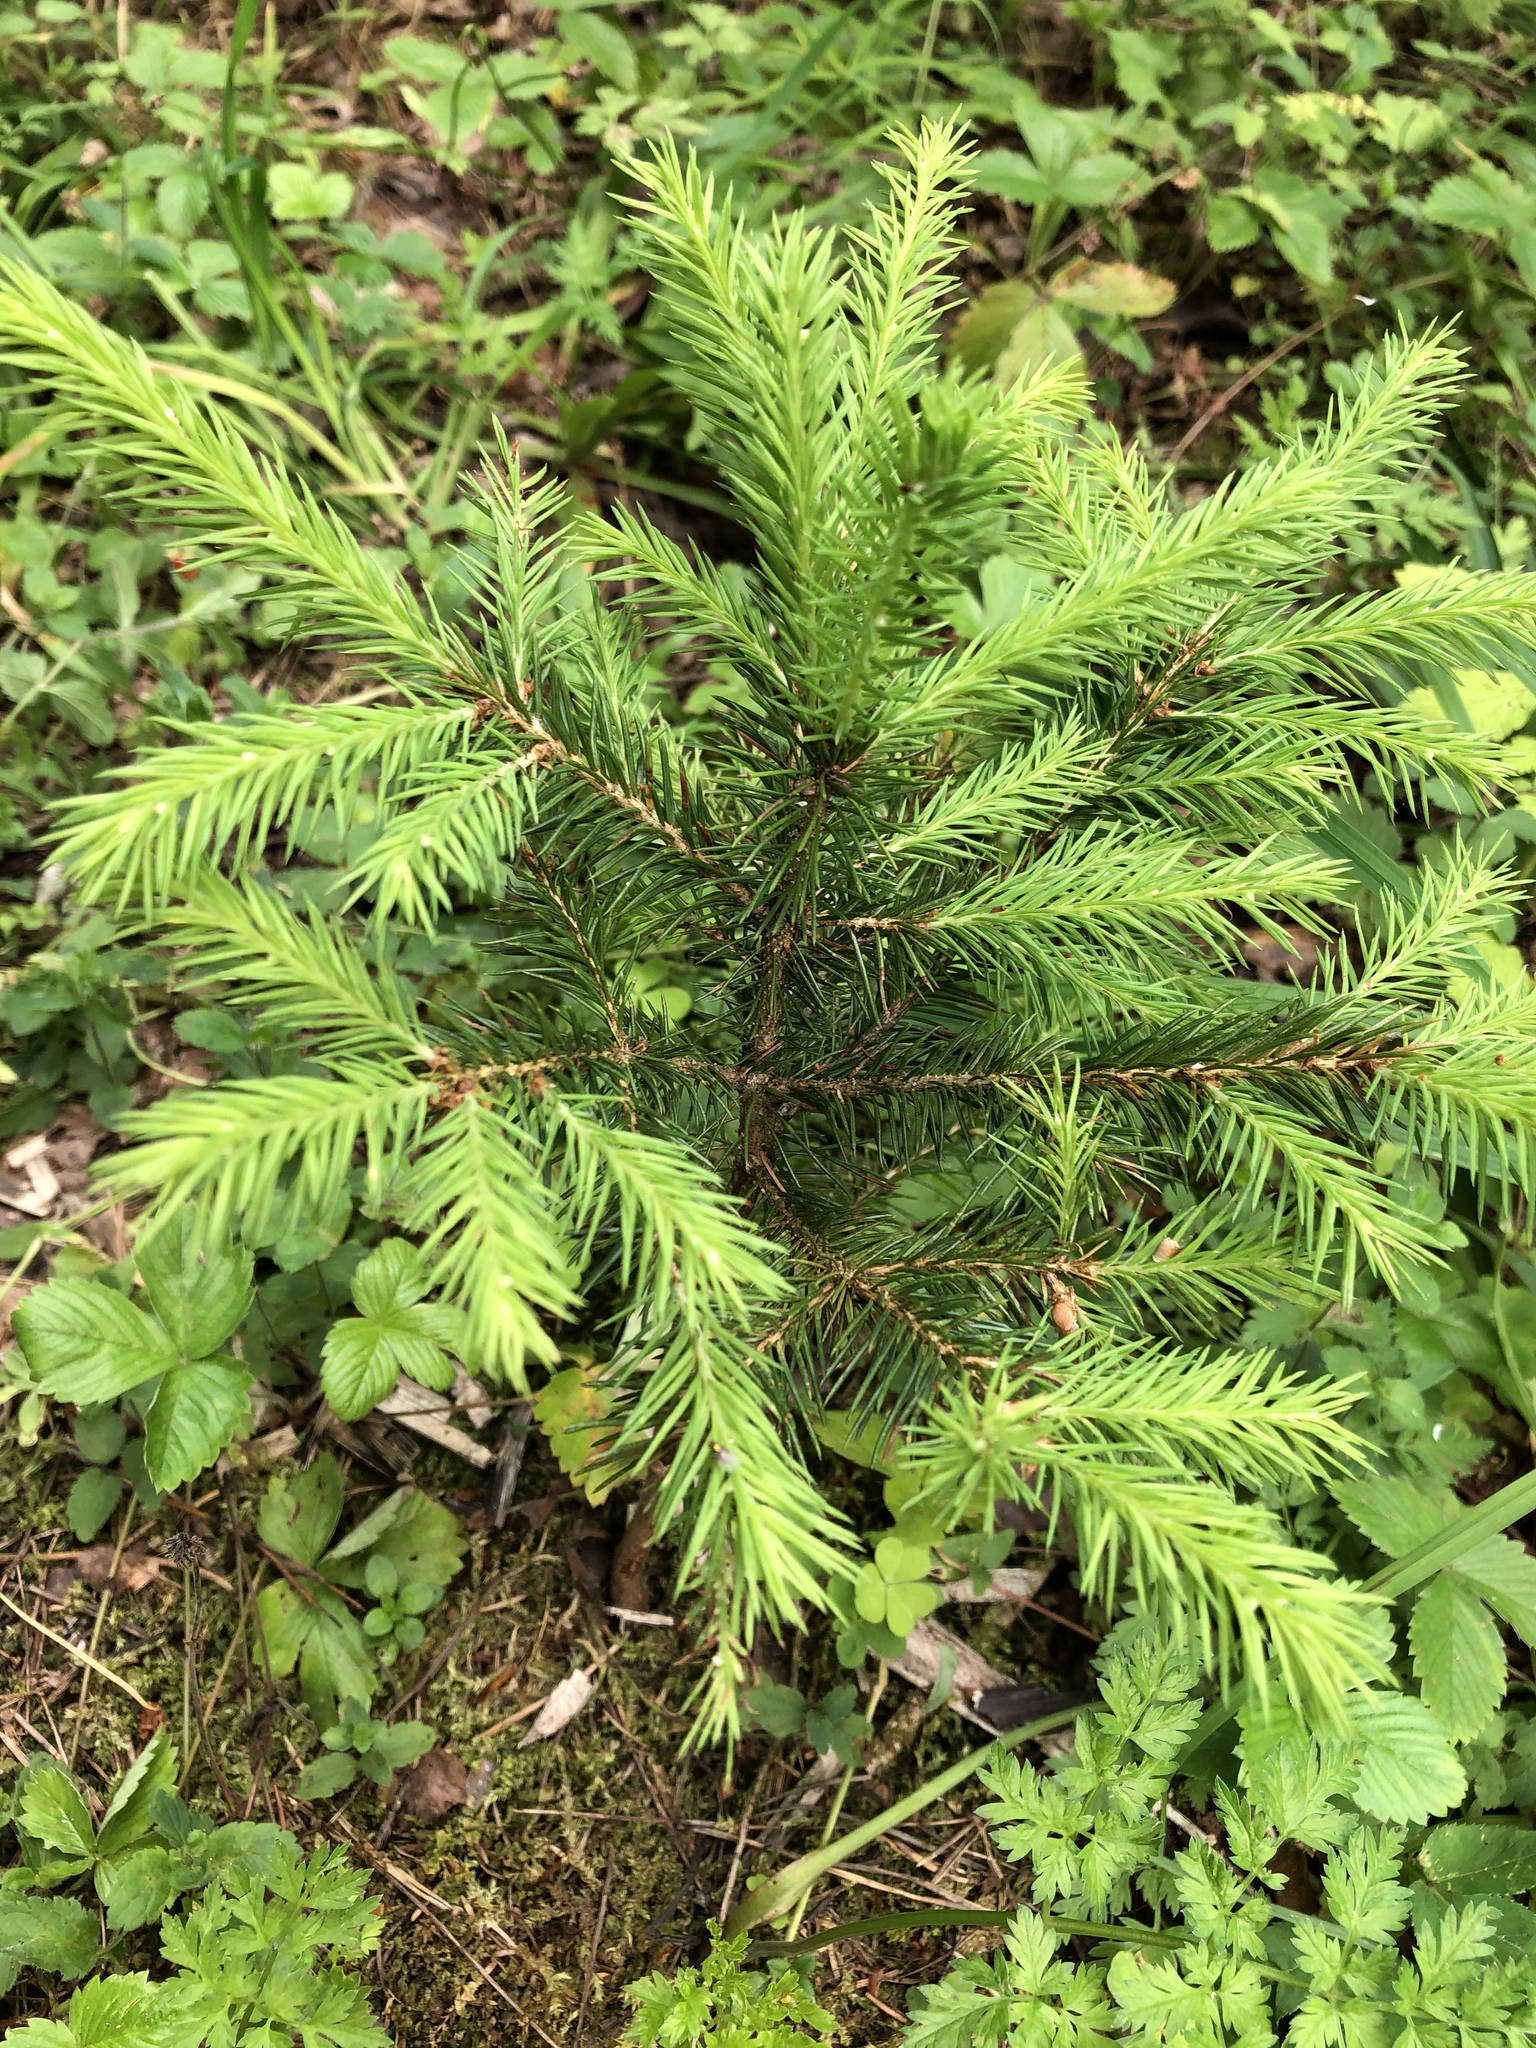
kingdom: Plantae
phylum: Tracheophyta
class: Pinopsida
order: Pinales
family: Pinaceae
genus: Picea
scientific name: Picea abies
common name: Norway spruce
